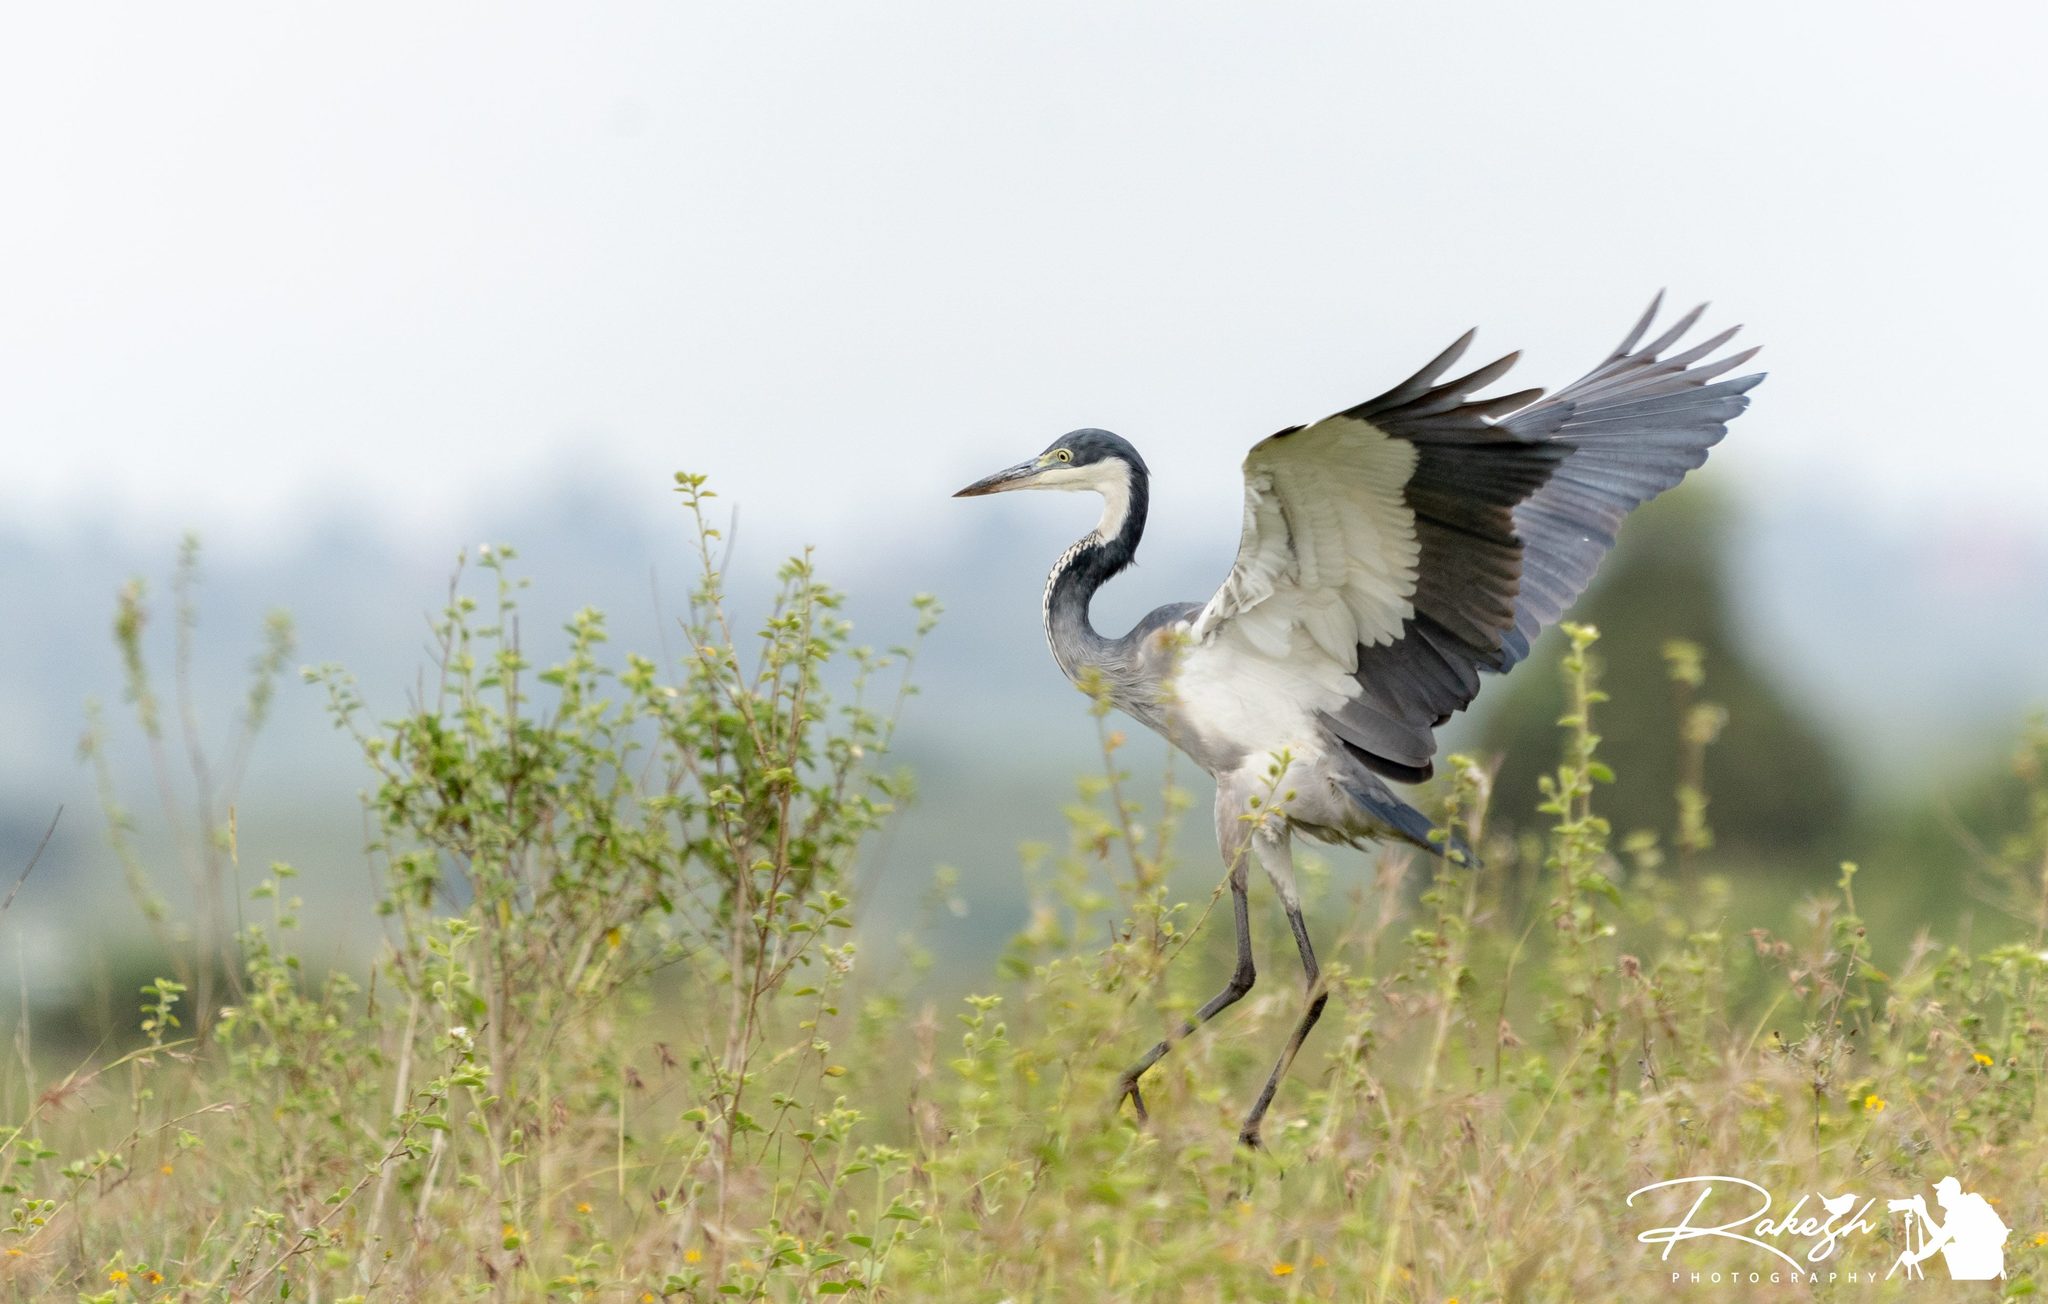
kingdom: Animalia
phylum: Chordata
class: Aves
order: Pelecaniformes
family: Ardeidae
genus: Ardea
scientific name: Ardea melanocephala
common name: Black-headed heron
